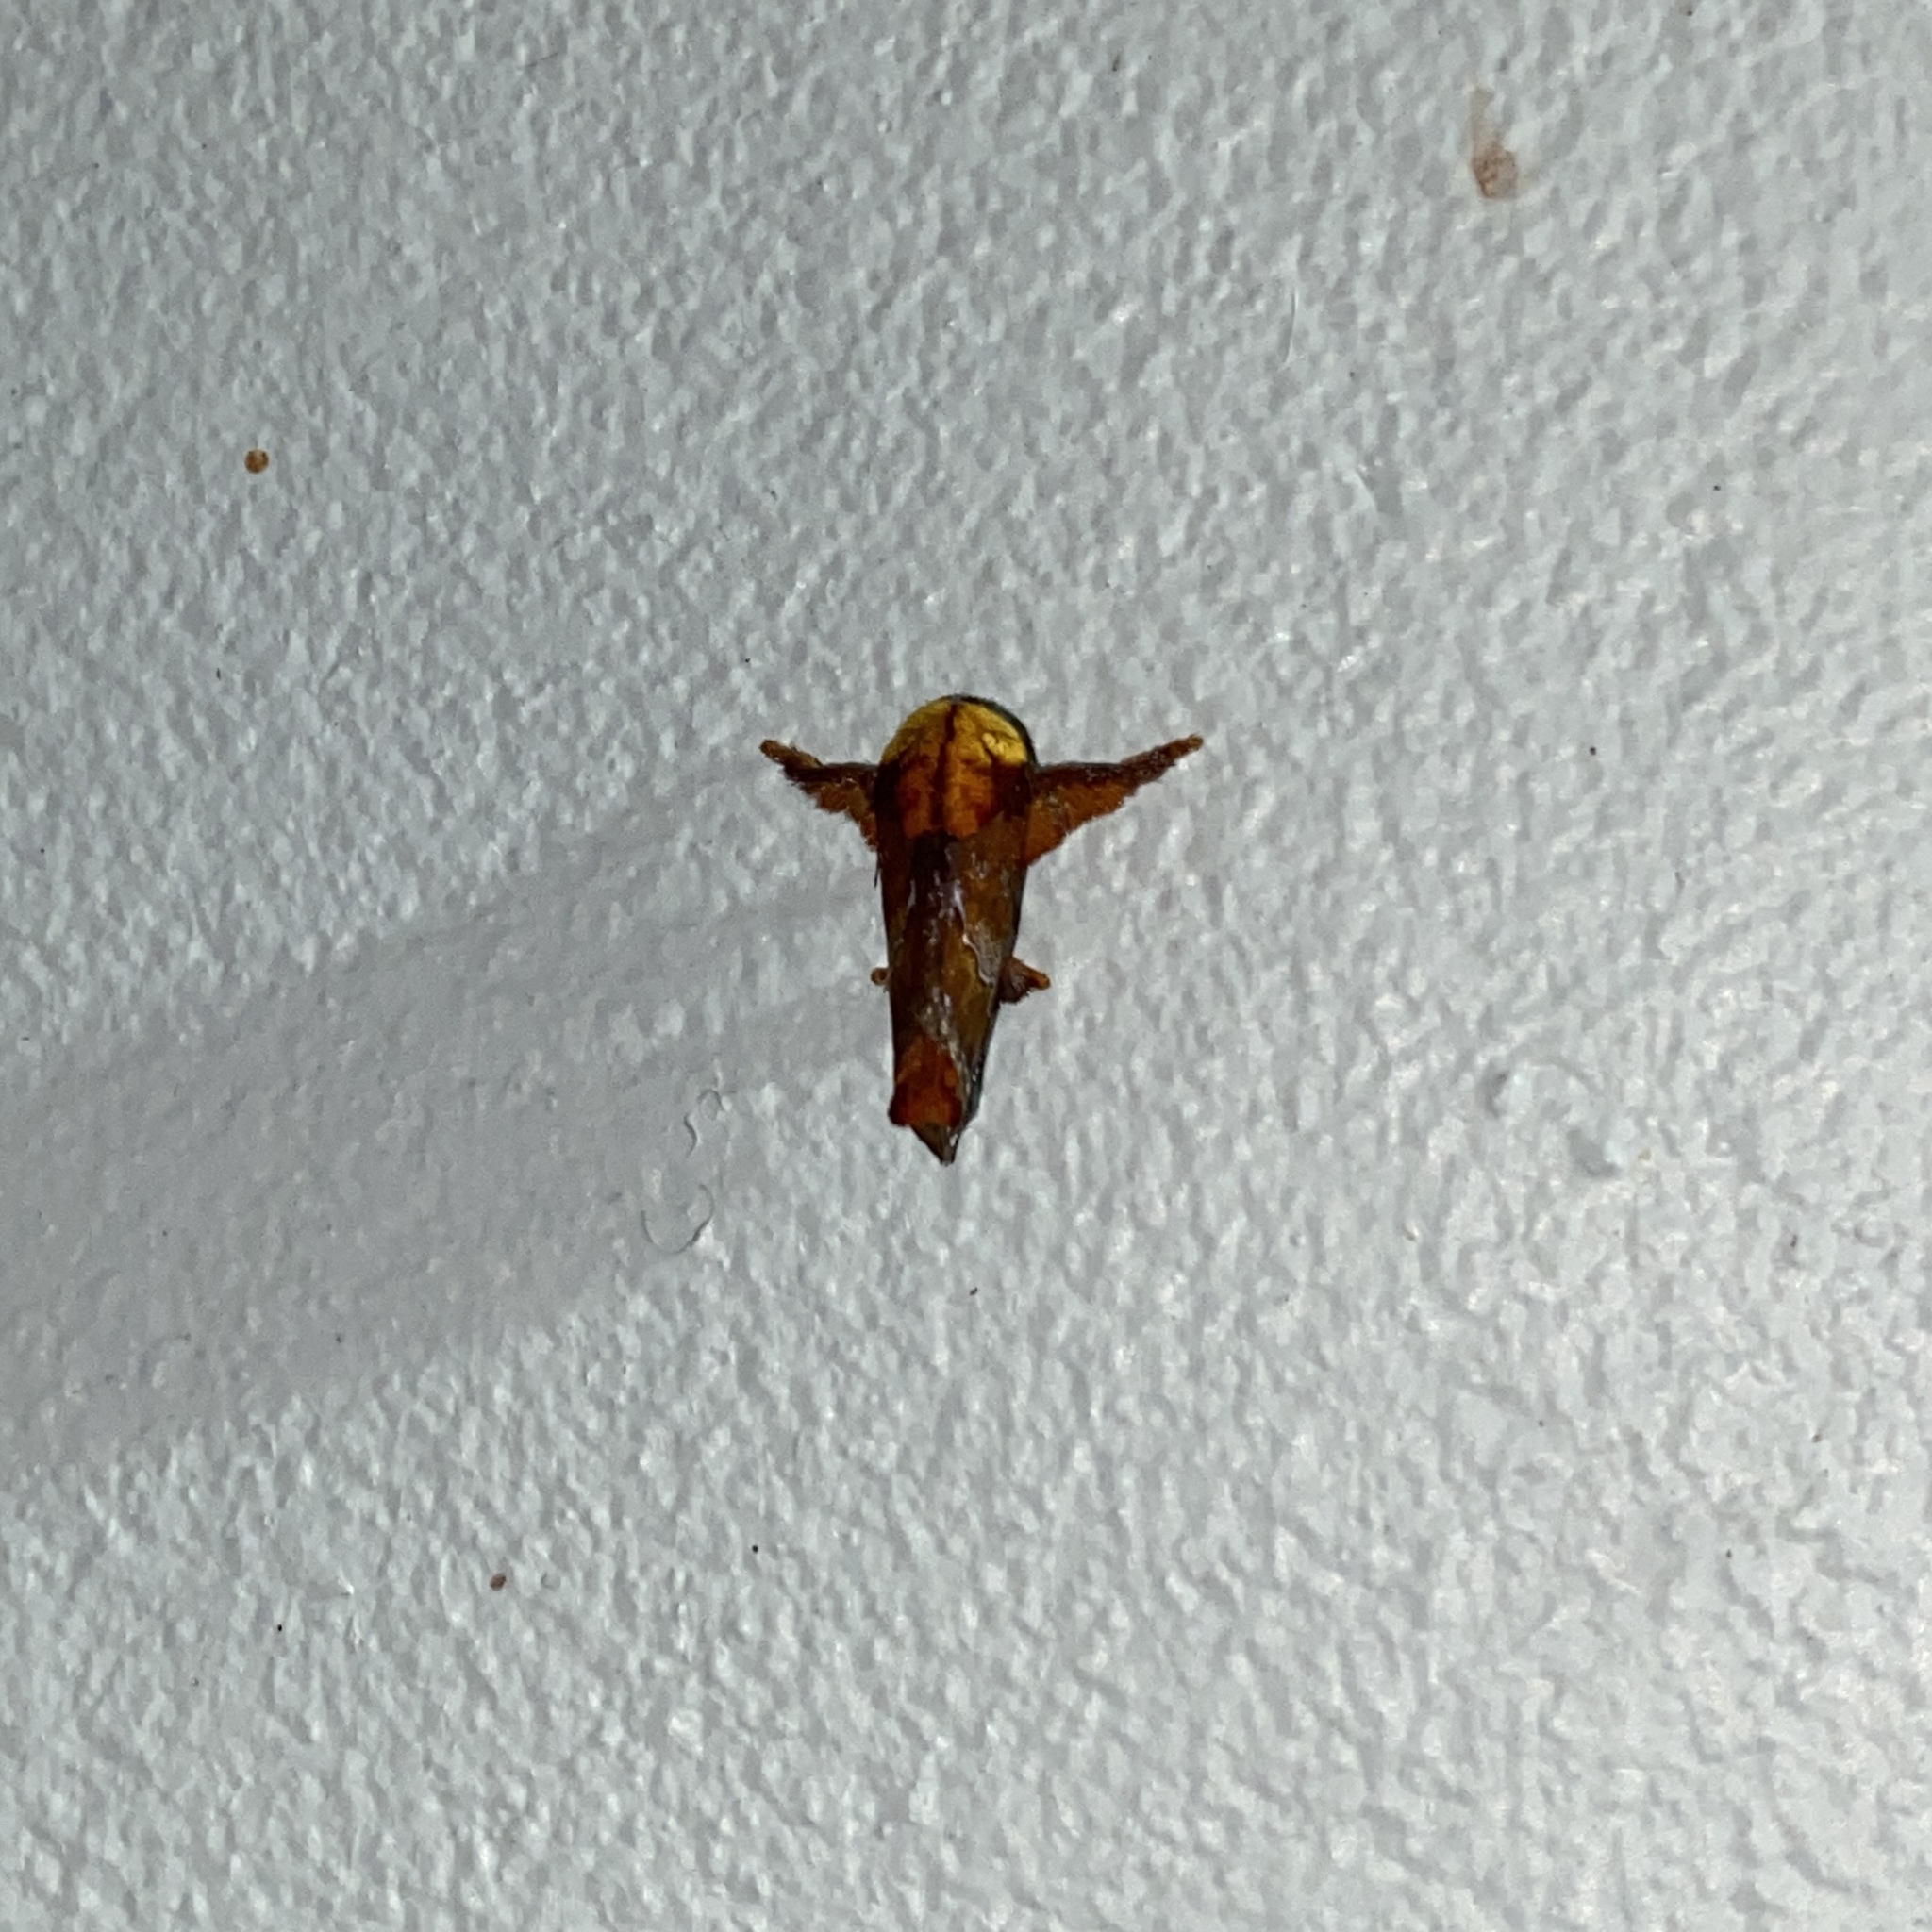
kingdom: Animalia
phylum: Arthropoda
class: Insecta
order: Lepidoptera
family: Limacodidae
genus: Miresa
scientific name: Miresa clarissa
